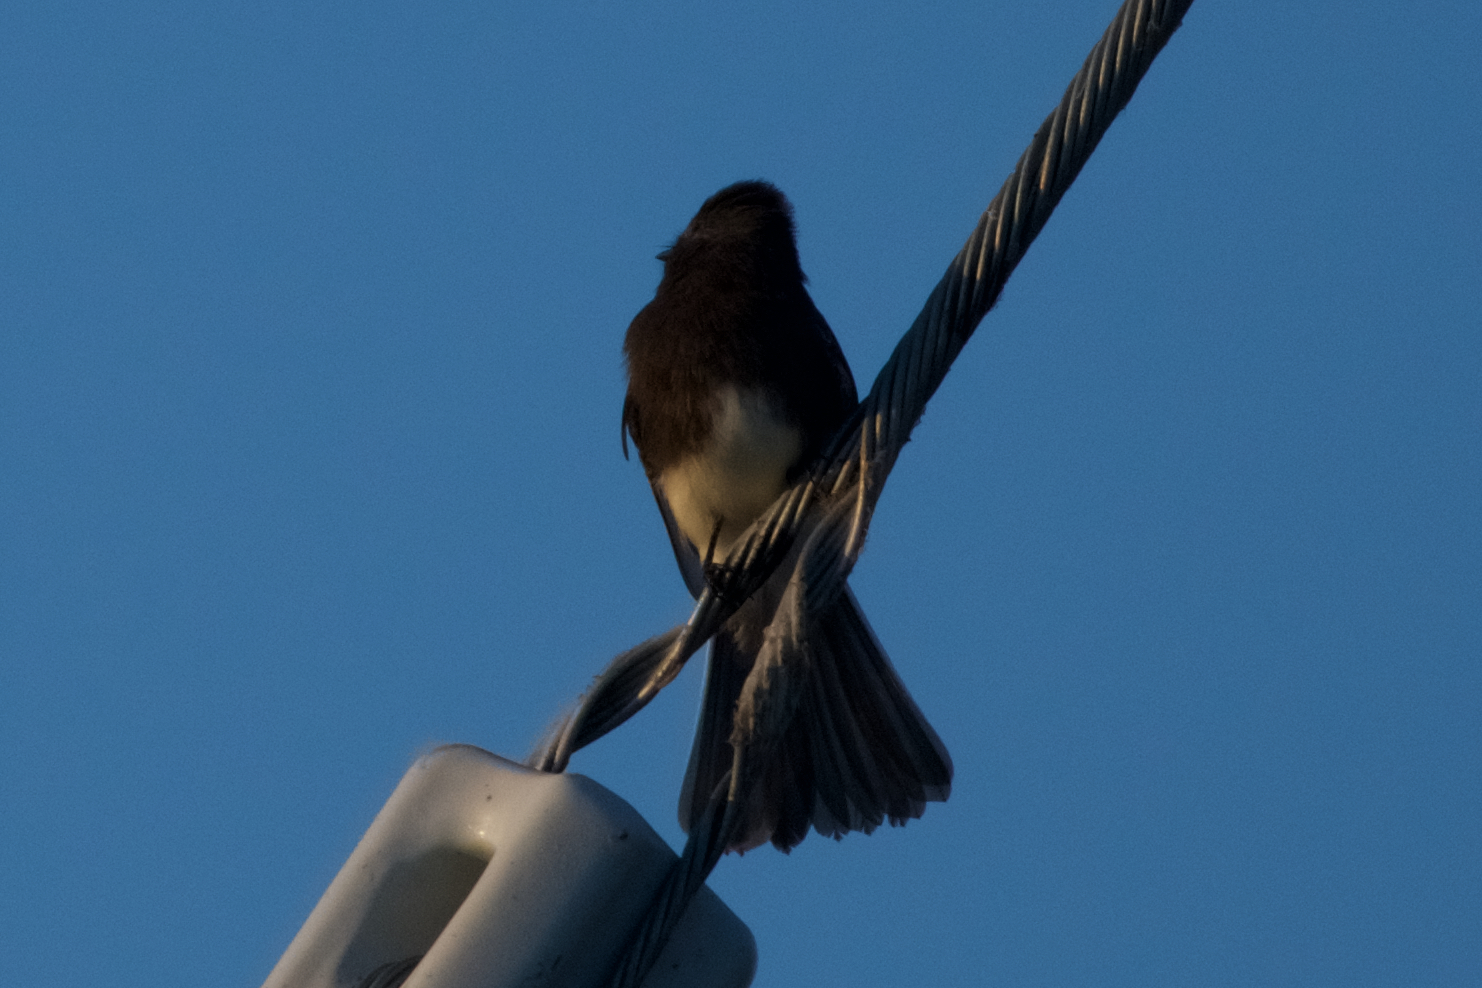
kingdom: Animalia
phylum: Chordata
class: Aves
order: Passeriformes
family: Tyrannidae
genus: Sayornis
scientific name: Sayornis nigricans
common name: Black phoebe
